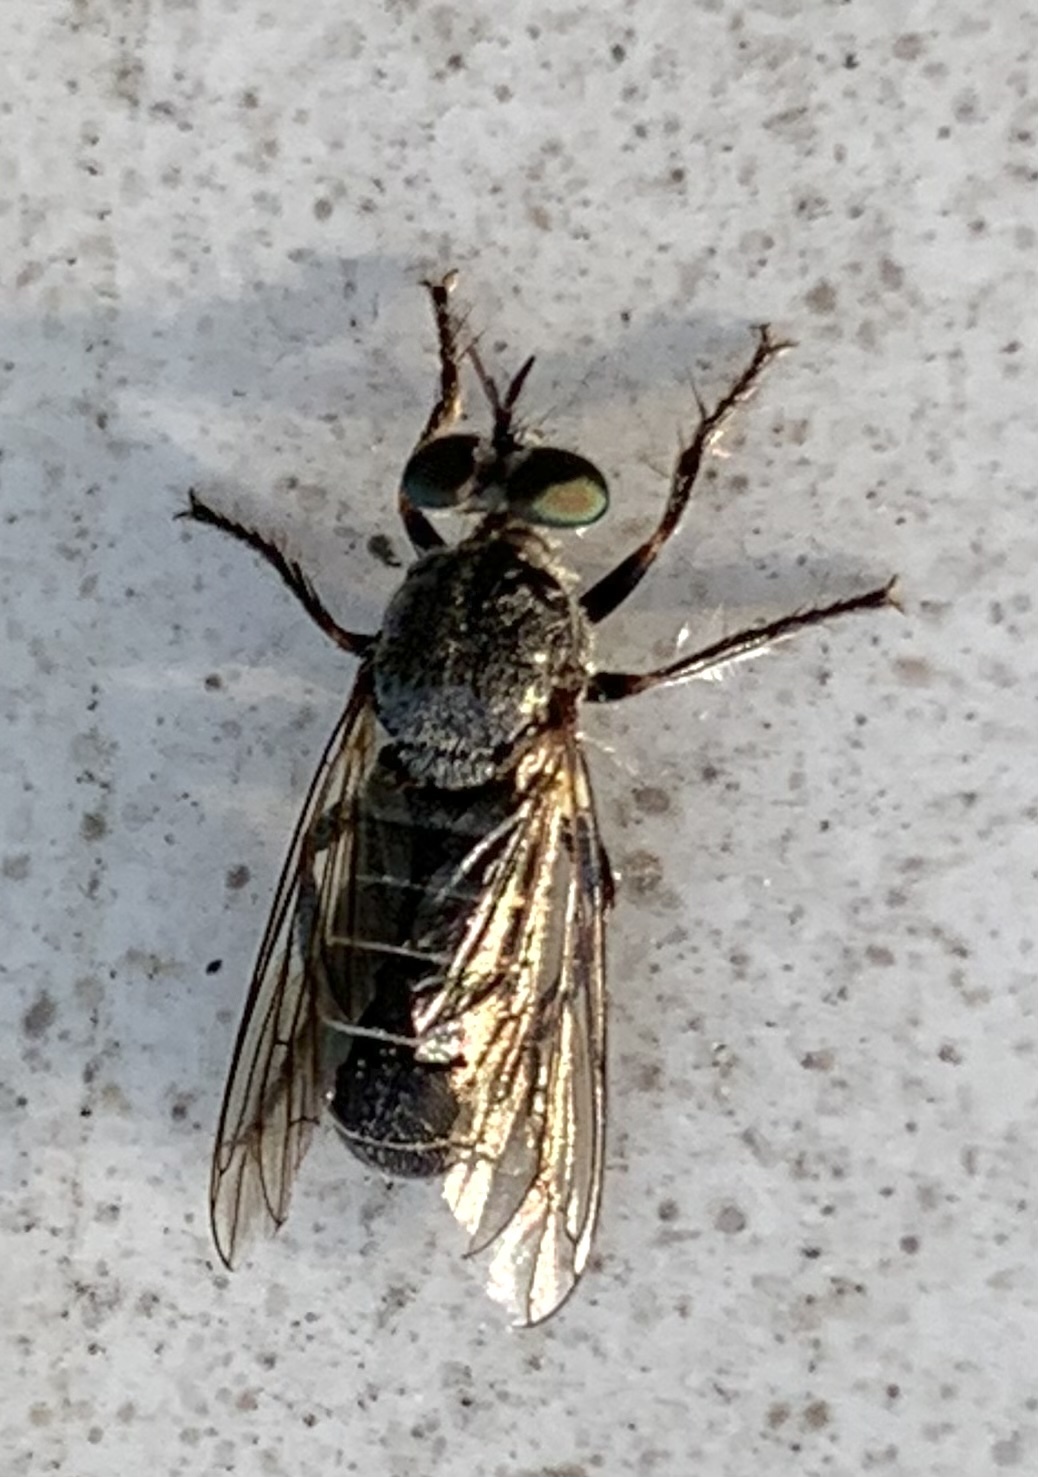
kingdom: Animalia
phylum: Arthropoda
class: Insecta
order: Diptera
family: Asilidae
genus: Atomosia
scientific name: Atomosia melanopogon
